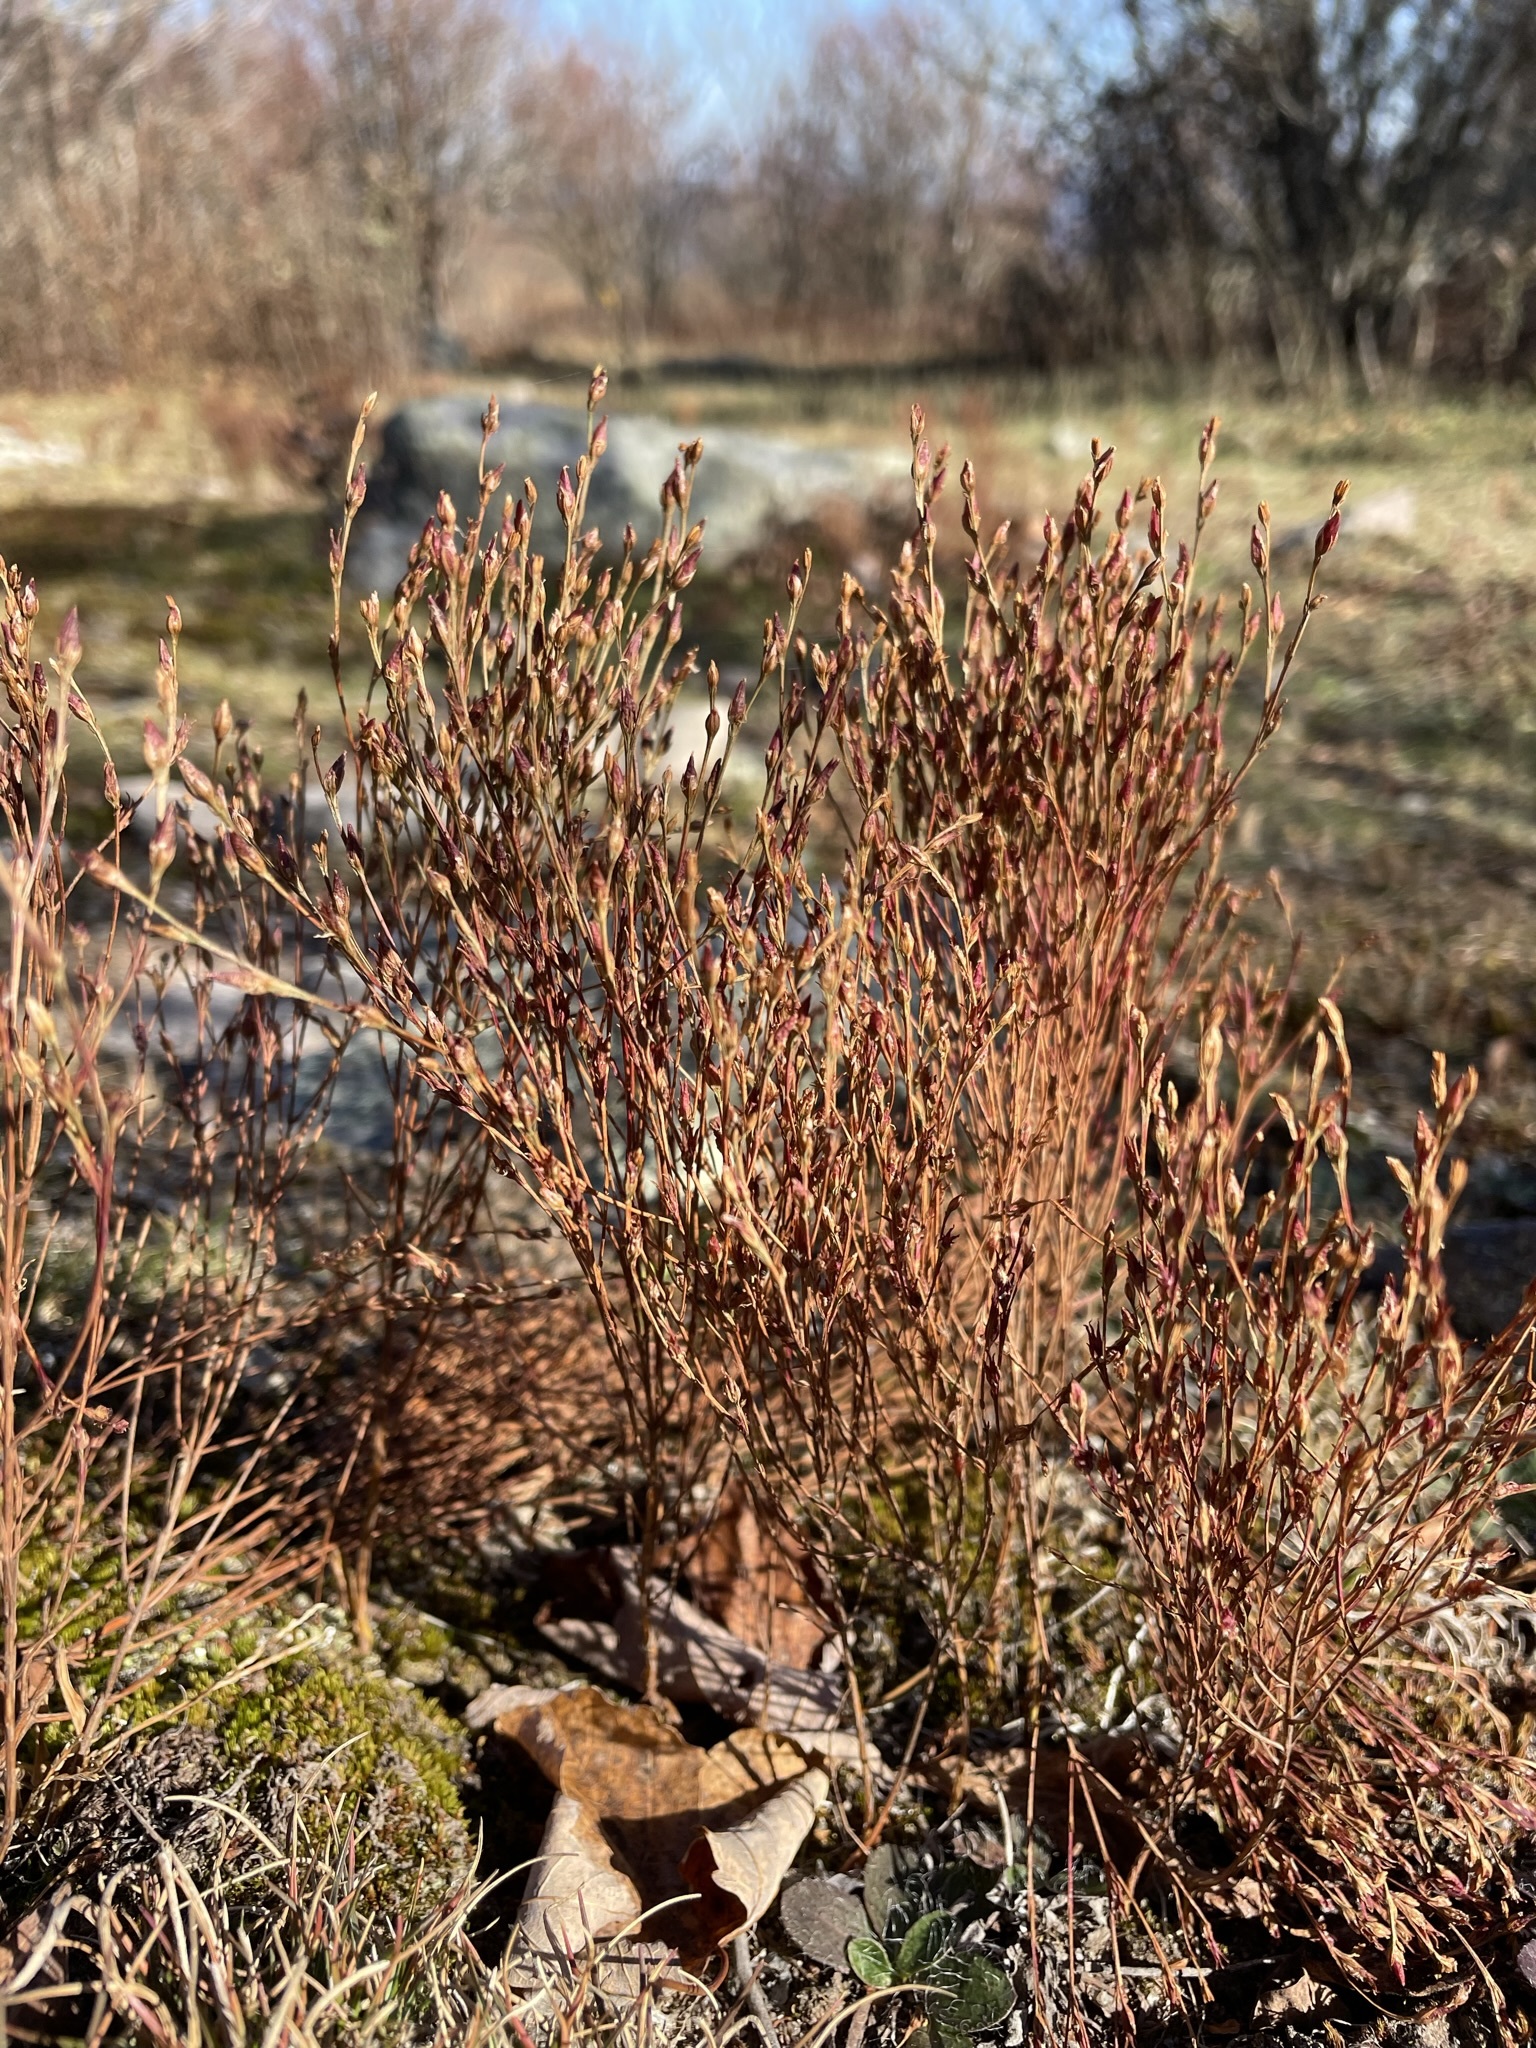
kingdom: Plantae
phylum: Tracheophyta
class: Magnoliopsida
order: Malpighiales
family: Hypericaceae
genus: Hypericum
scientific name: Hypericum gentianoides
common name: Gentian-leaved st. john's-wort
